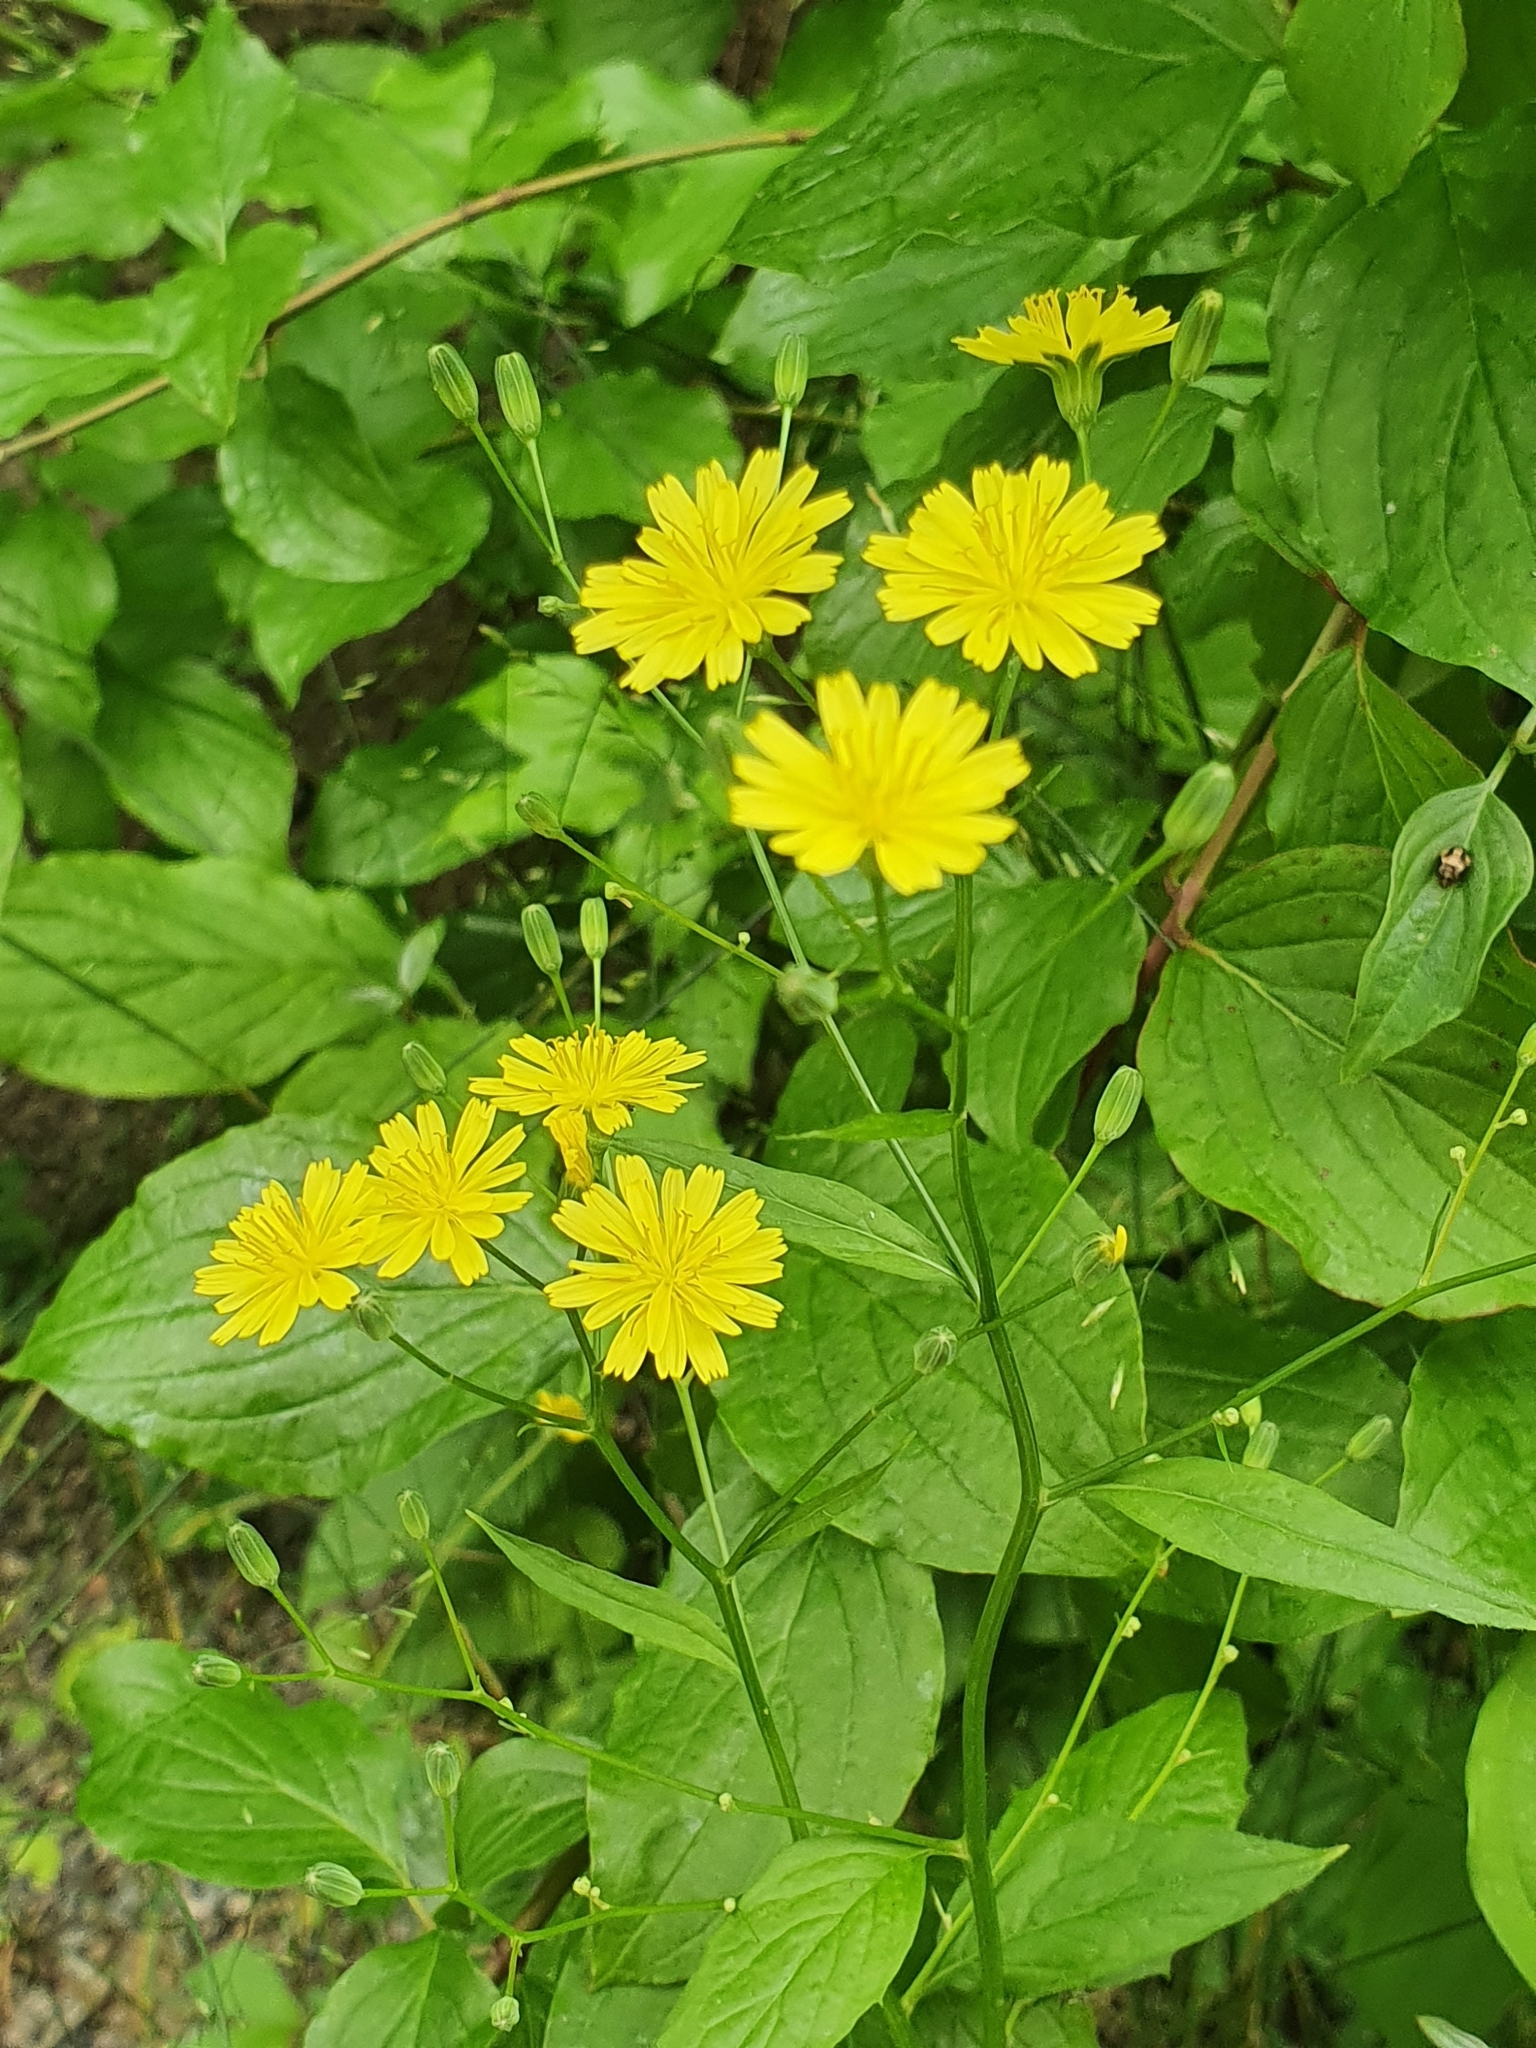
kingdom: Plantae
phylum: Tracheophyta
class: Magnoliopsida
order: Asterales
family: Asteraceae
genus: Lapsana
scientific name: Lapsana communis
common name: Nipplewort
